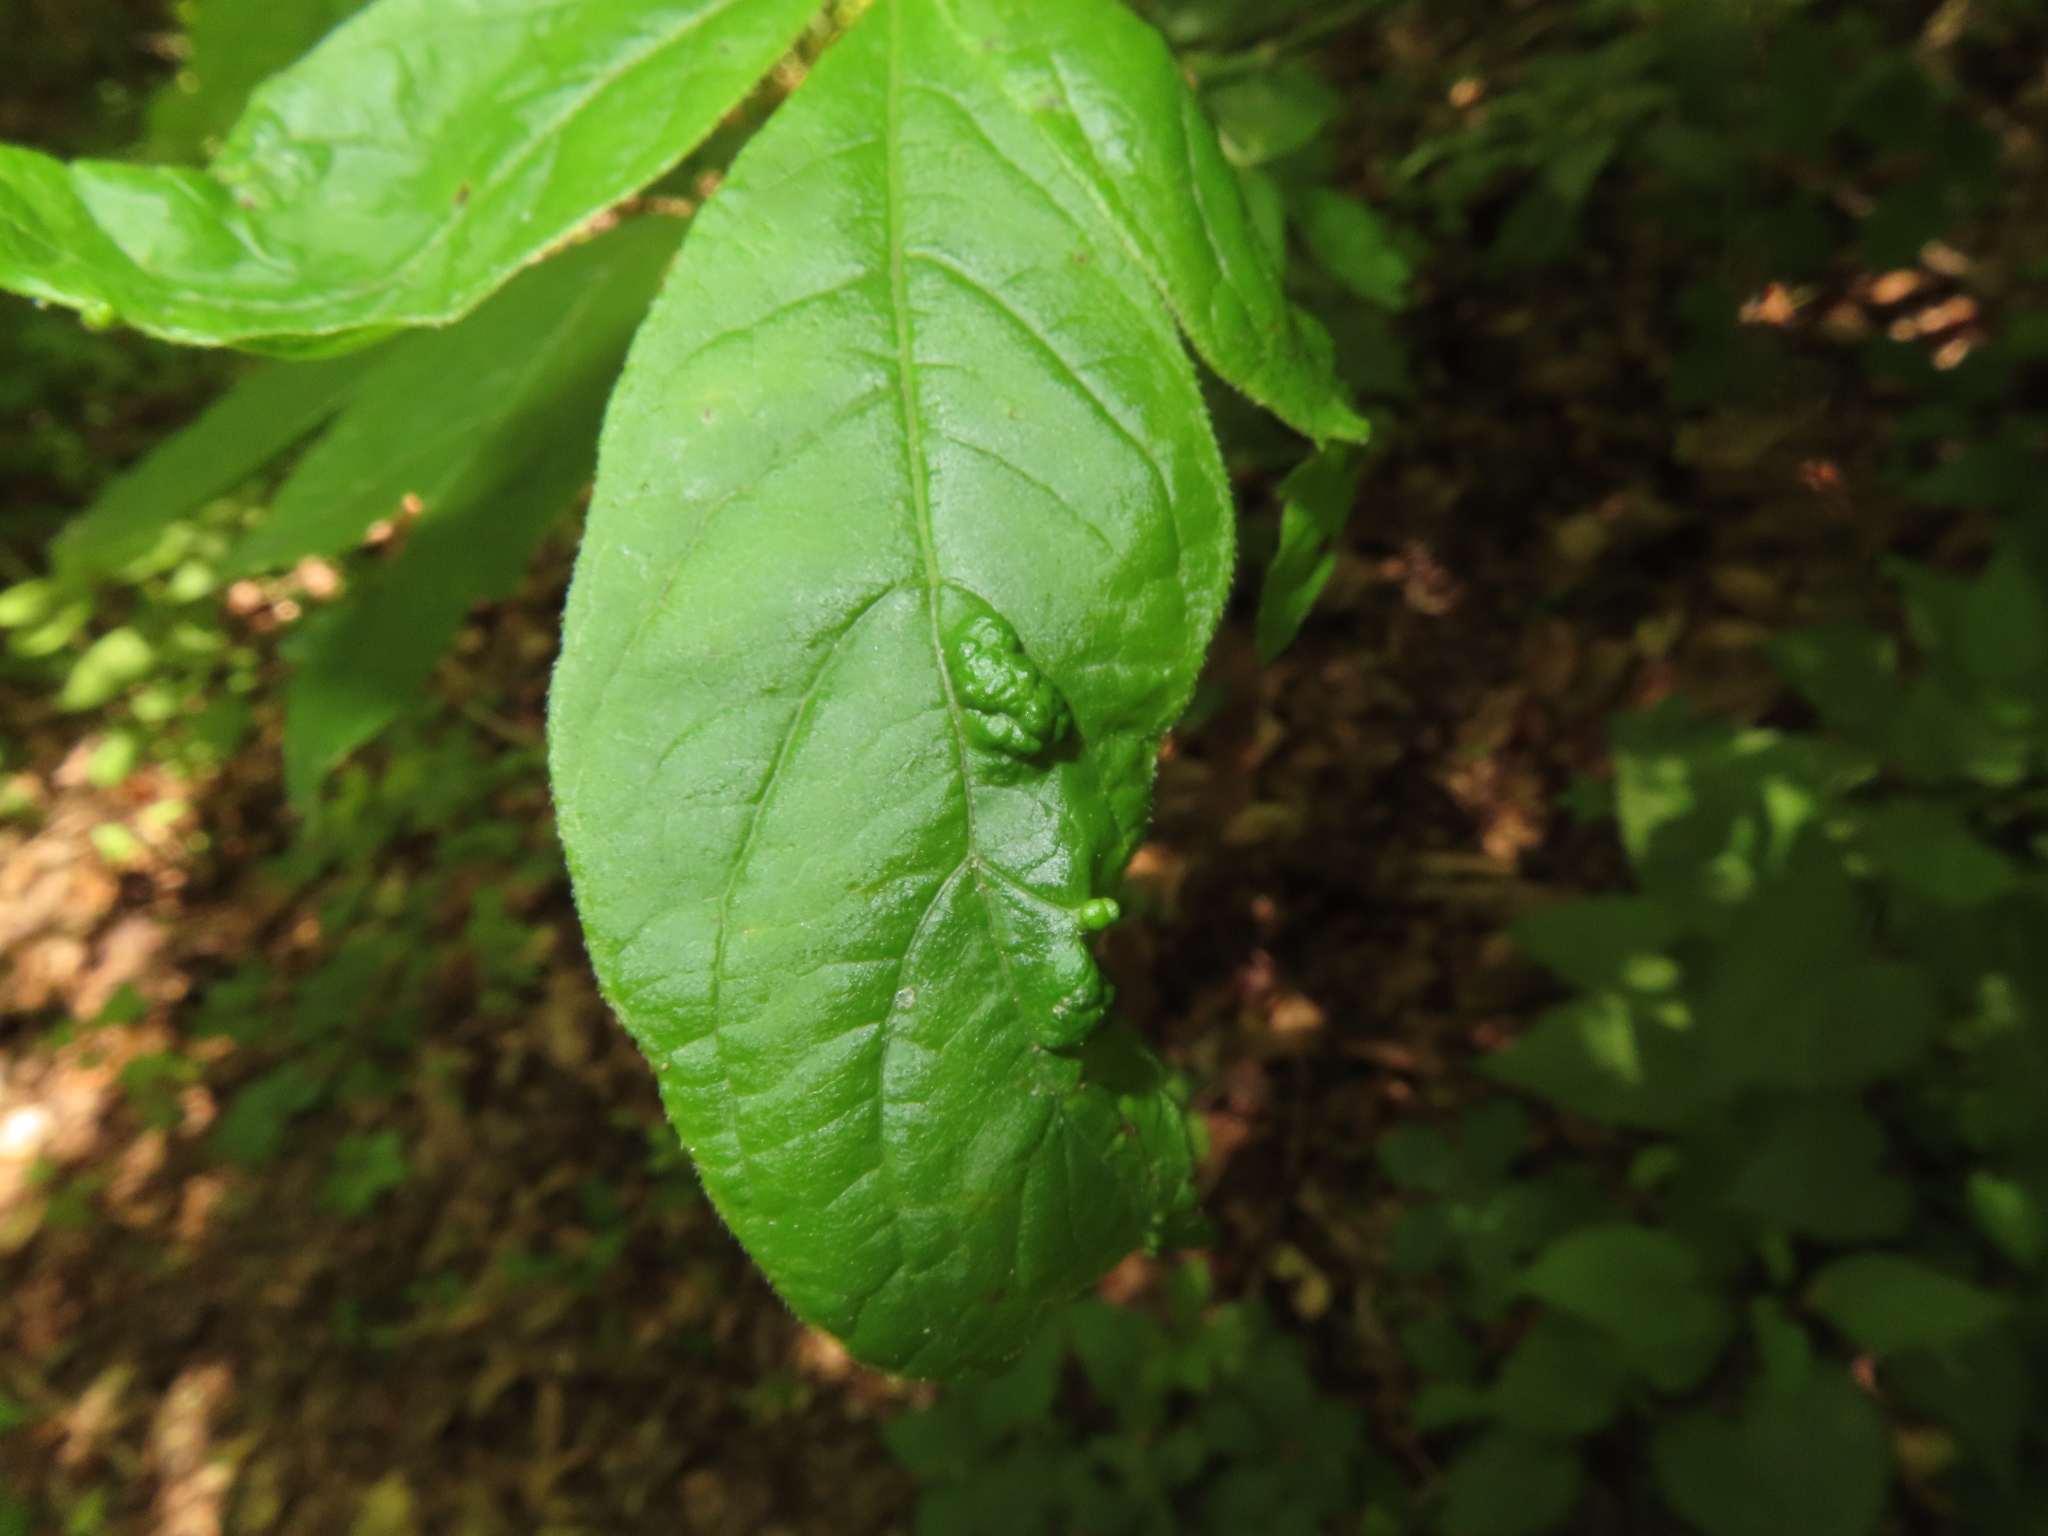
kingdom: Animalia
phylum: Arthropoda
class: Arachnida
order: Trombidiformes
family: Eriophyidae
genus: Aceria
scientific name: Aceria
